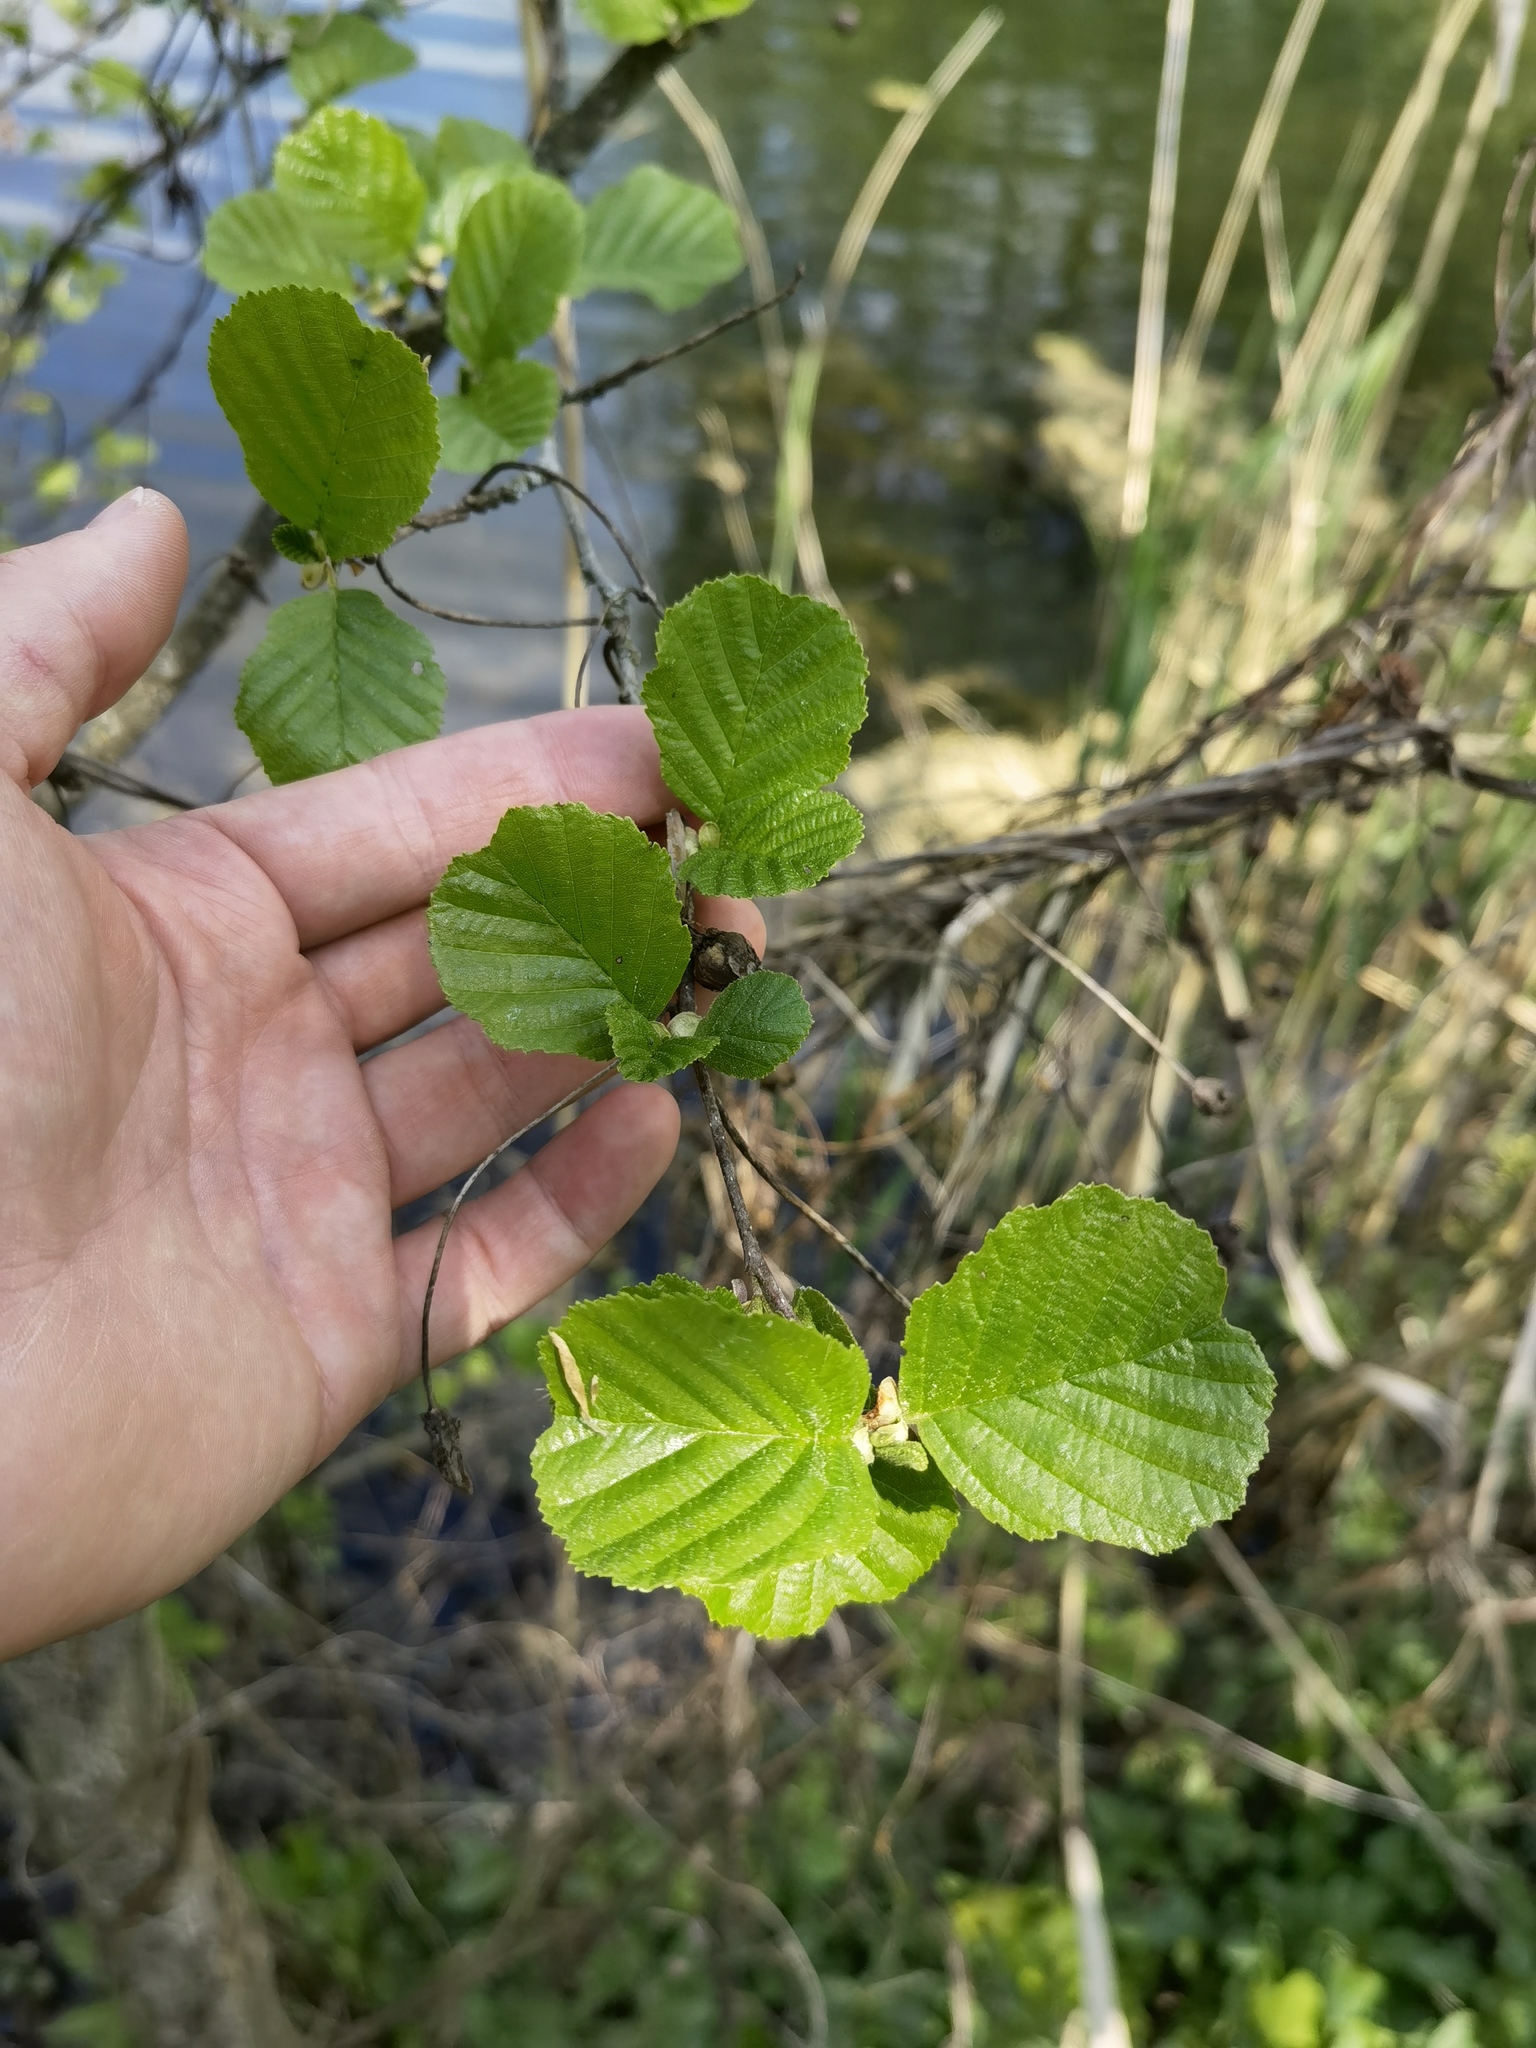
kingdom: Plantae
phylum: Tracheophyta
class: Magnoliopsida
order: Fagales
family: Betulaceae
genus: Alnus
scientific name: Alnus glutinosa
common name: Black alder
